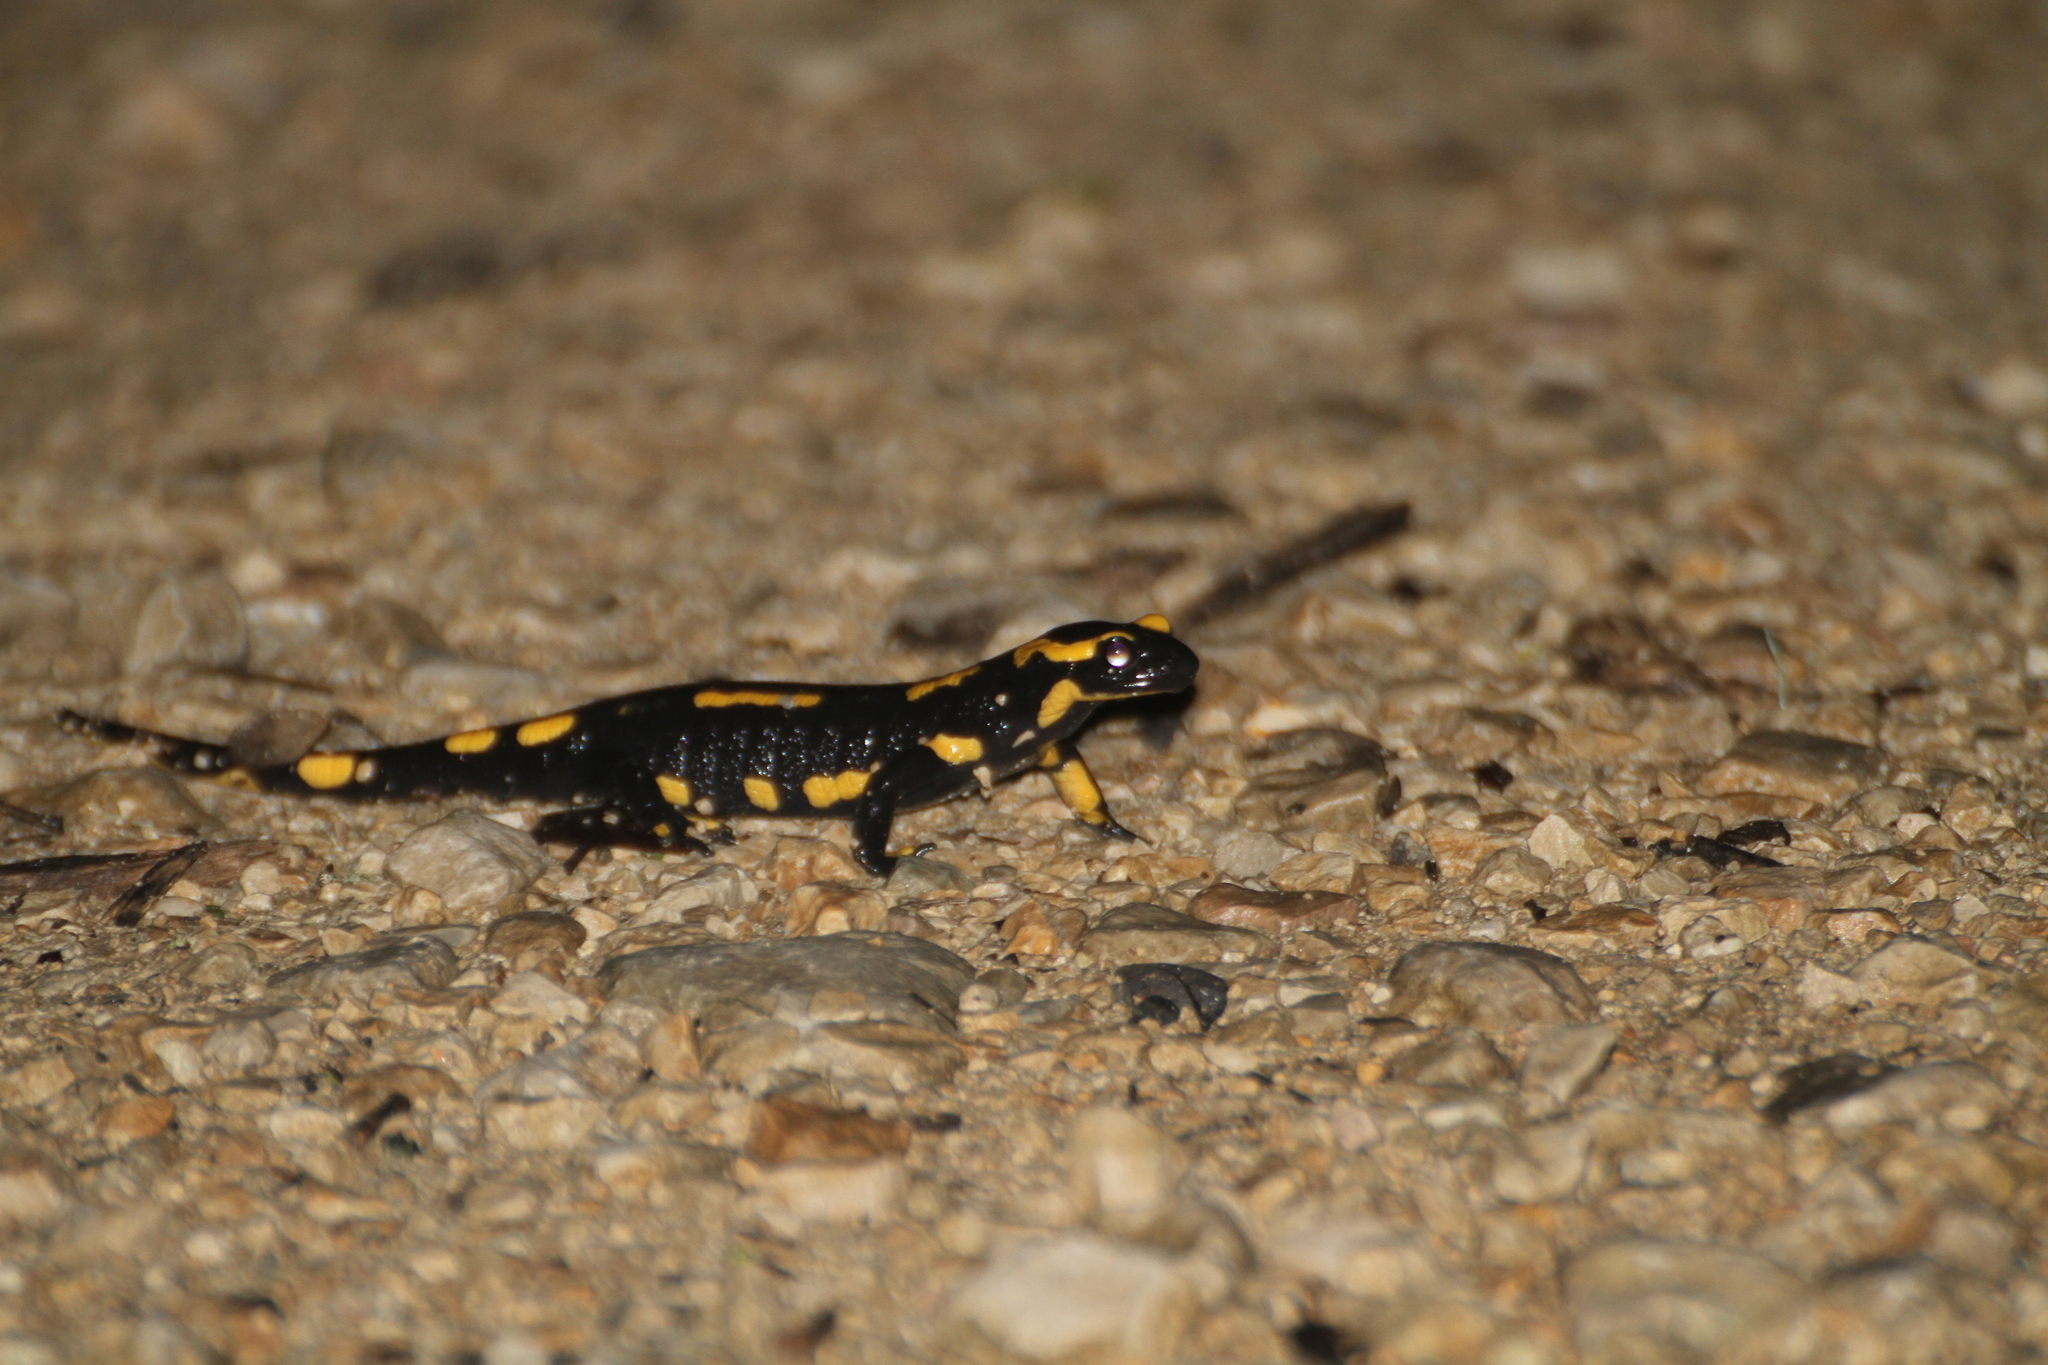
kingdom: Animalia
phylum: Chordata
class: Amphibia
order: Caudata
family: Salamandridae
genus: Salamandra
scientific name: Salamandra salamandra
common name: Fire salamander
